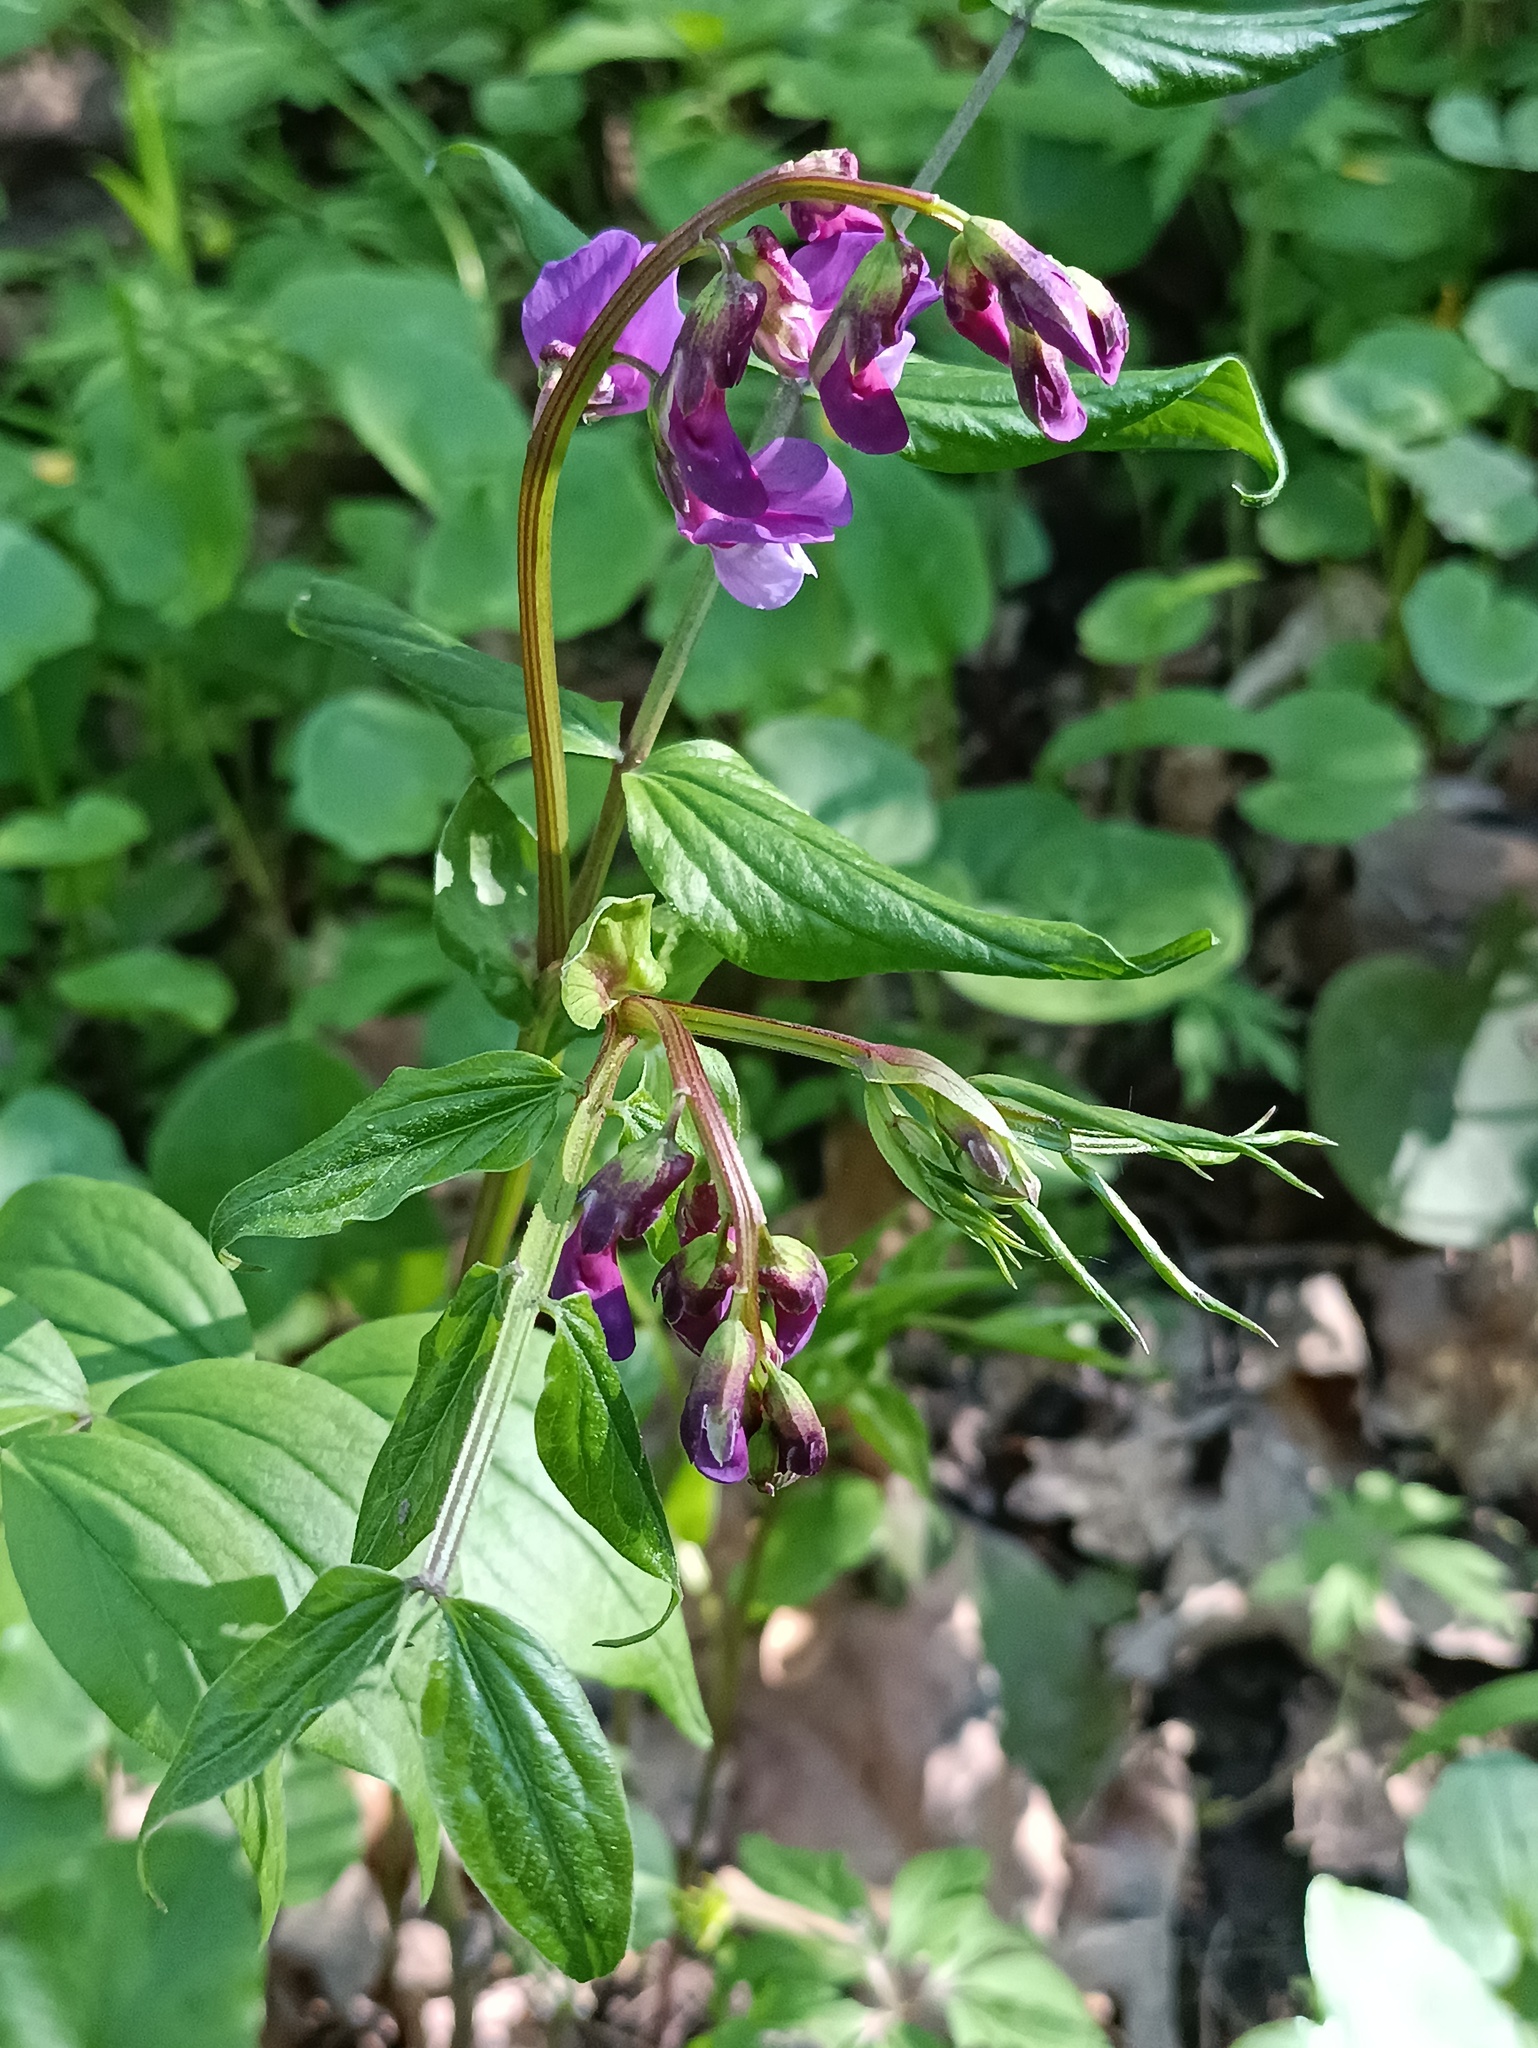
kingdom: Plantae
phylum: Tracheophyta
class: Magnoliopsida
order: Fabales
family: Fabaceae
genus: Lathyrus
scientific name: Lathyrus vernus
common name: Spring pea
